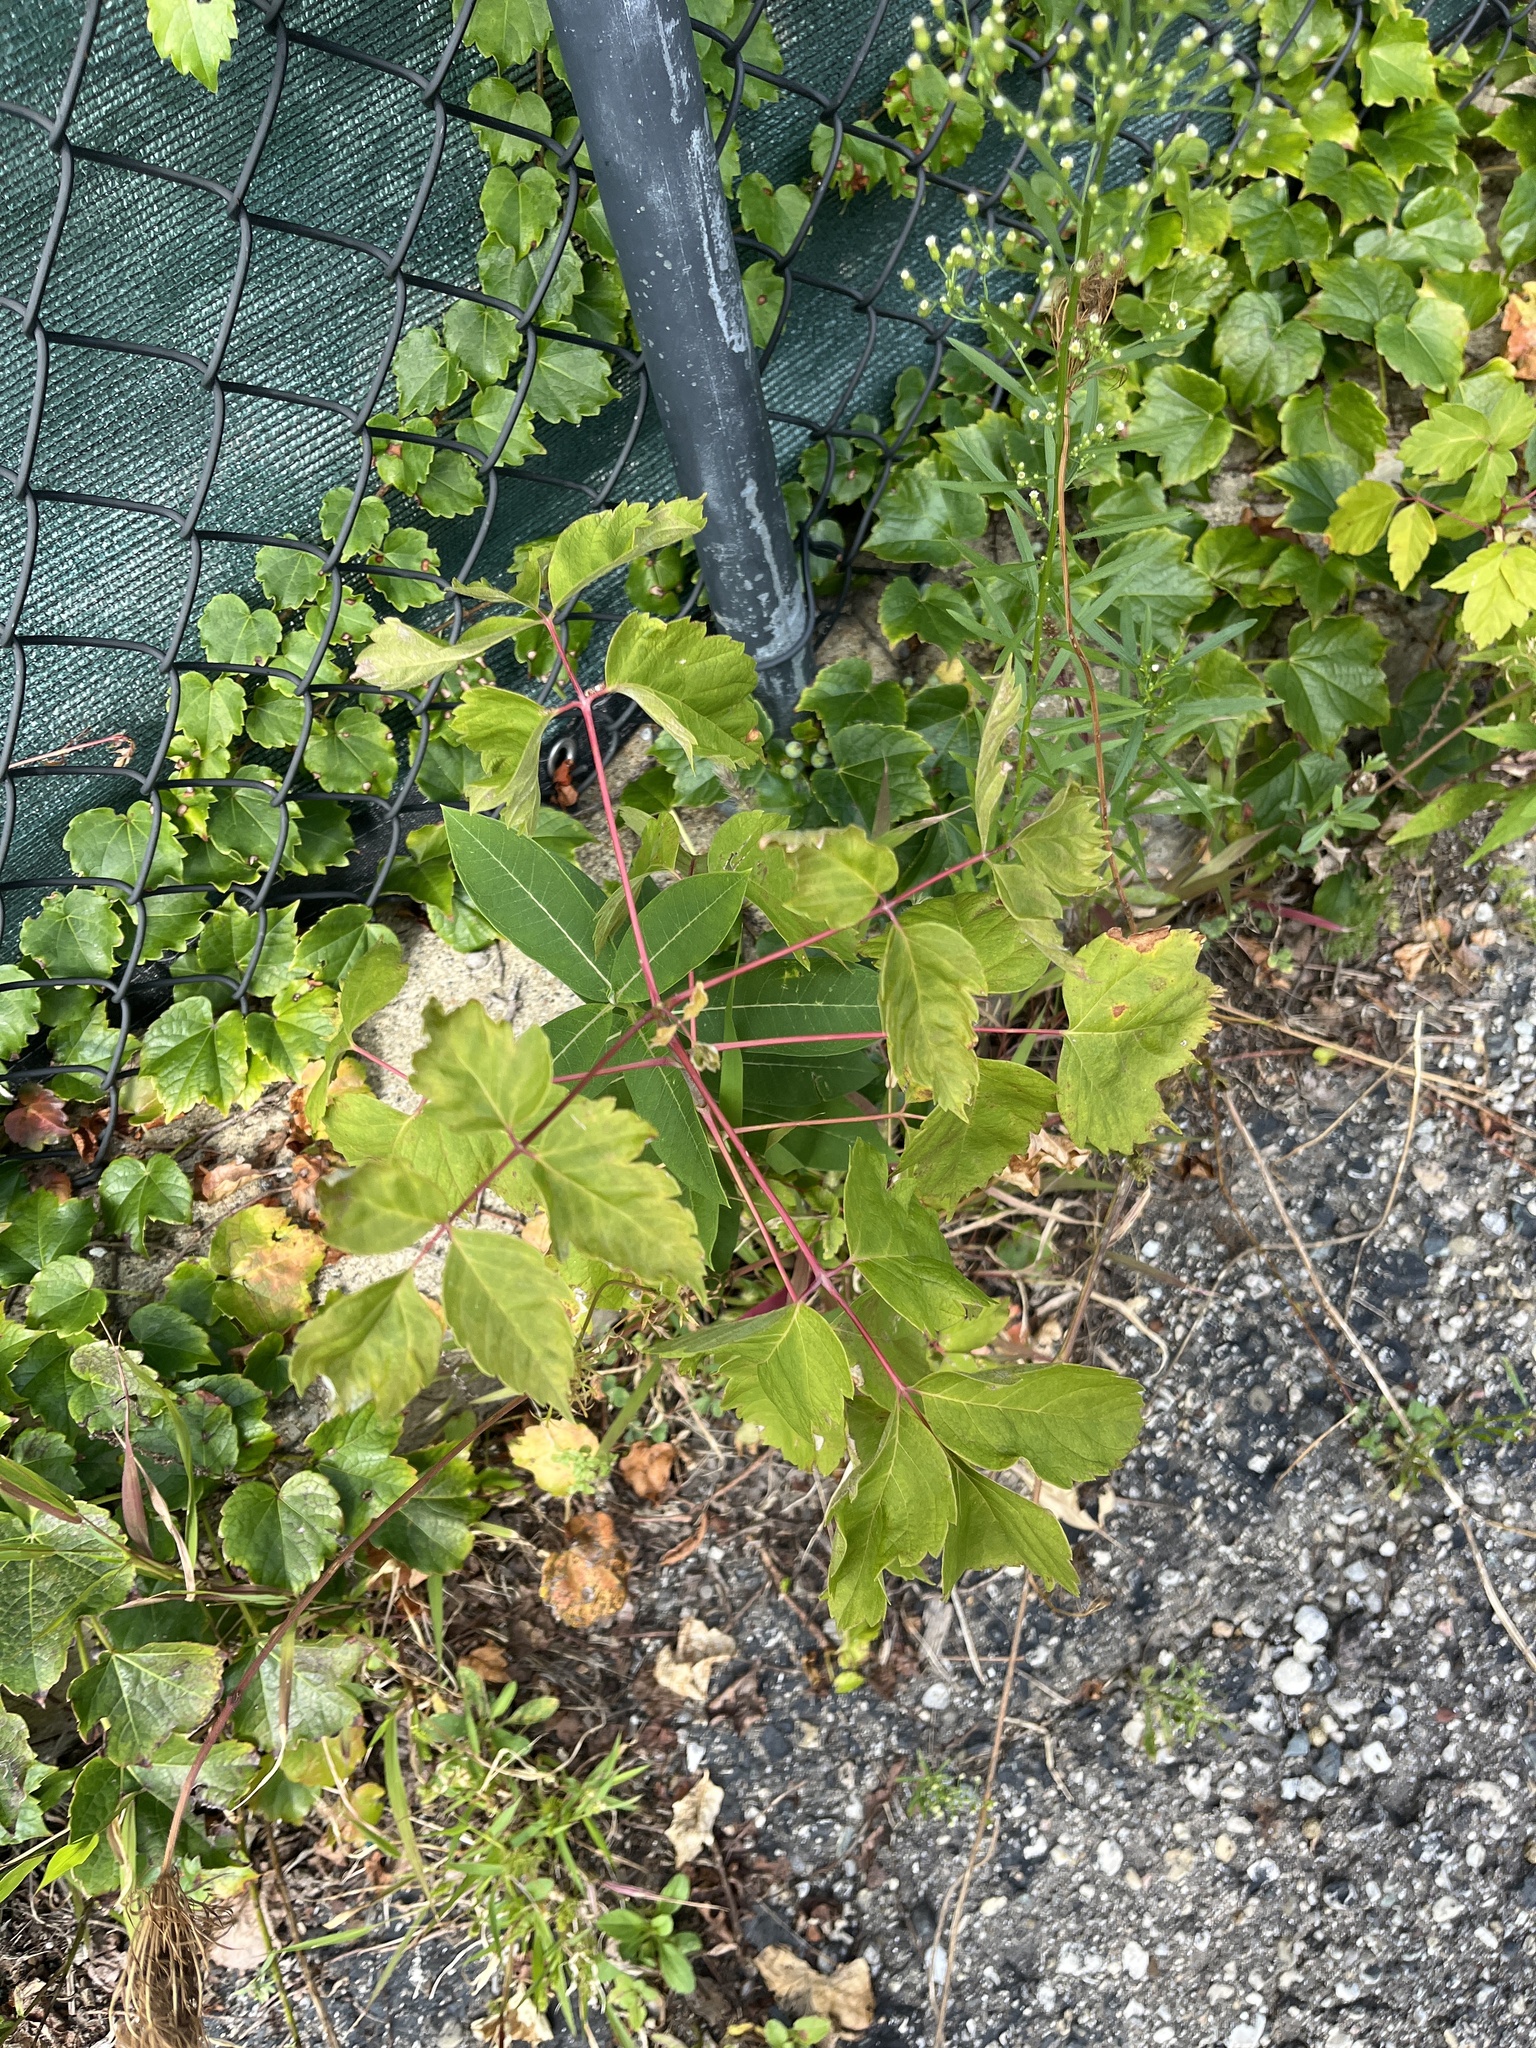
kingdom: Plantae
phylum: Tracheophyta
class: Magnoliopsida
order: Sapindales
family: Sapindaceae
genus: Acer
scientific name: Acer negundo
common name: Ashleaf maple
